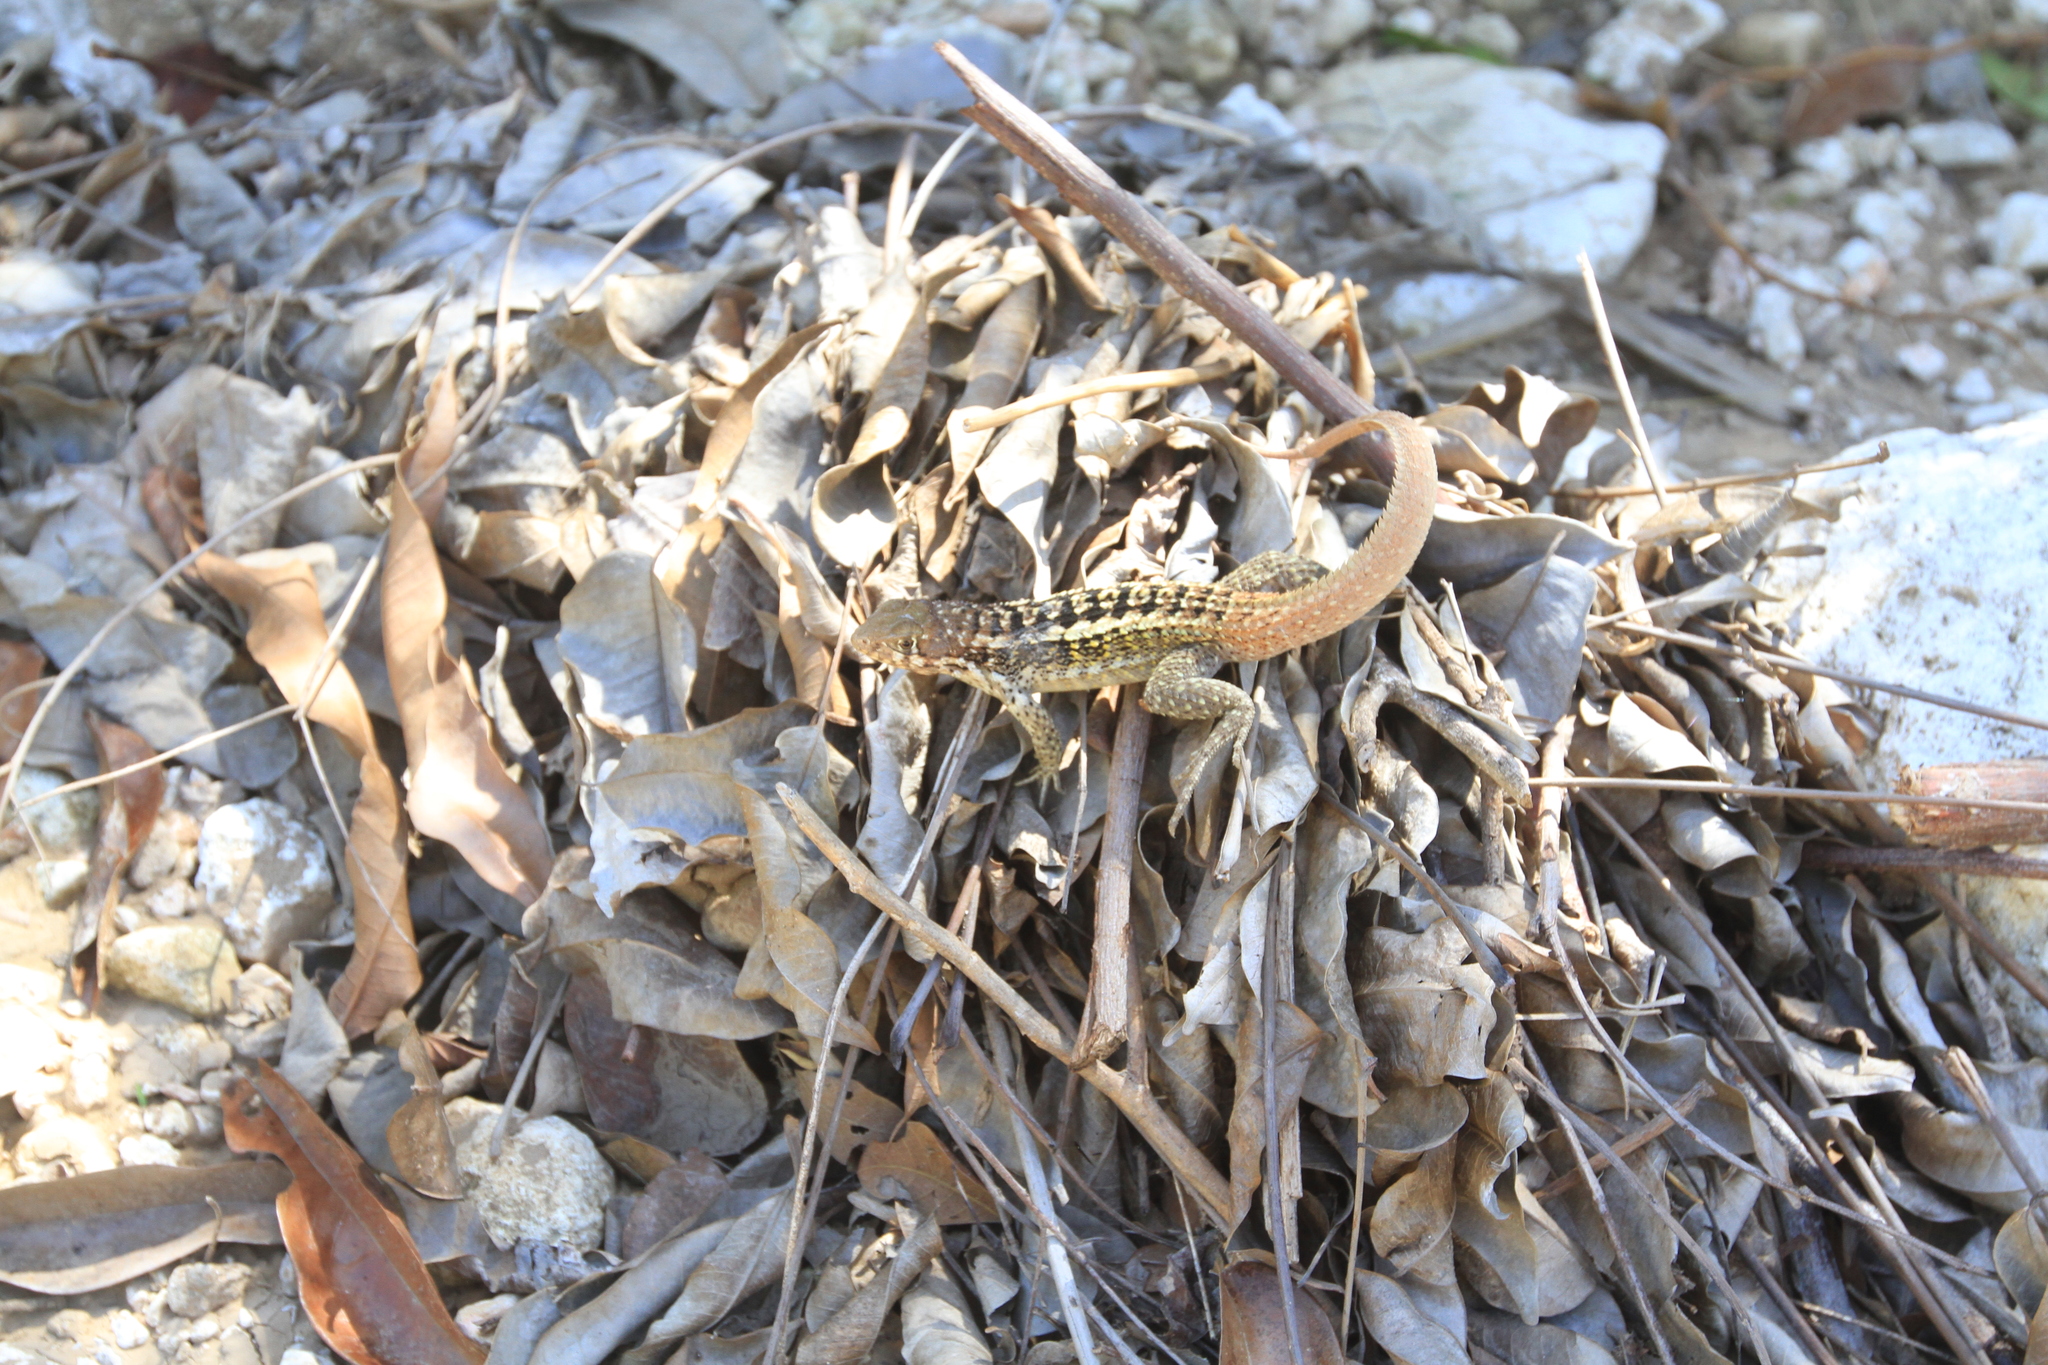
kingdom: Animalia
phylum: Chordata
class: Squamata
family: Leiocephalidae
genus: Leiocephalus
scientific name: Leiocephalus melanochlorus
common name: Jeremie curlytail lizard
